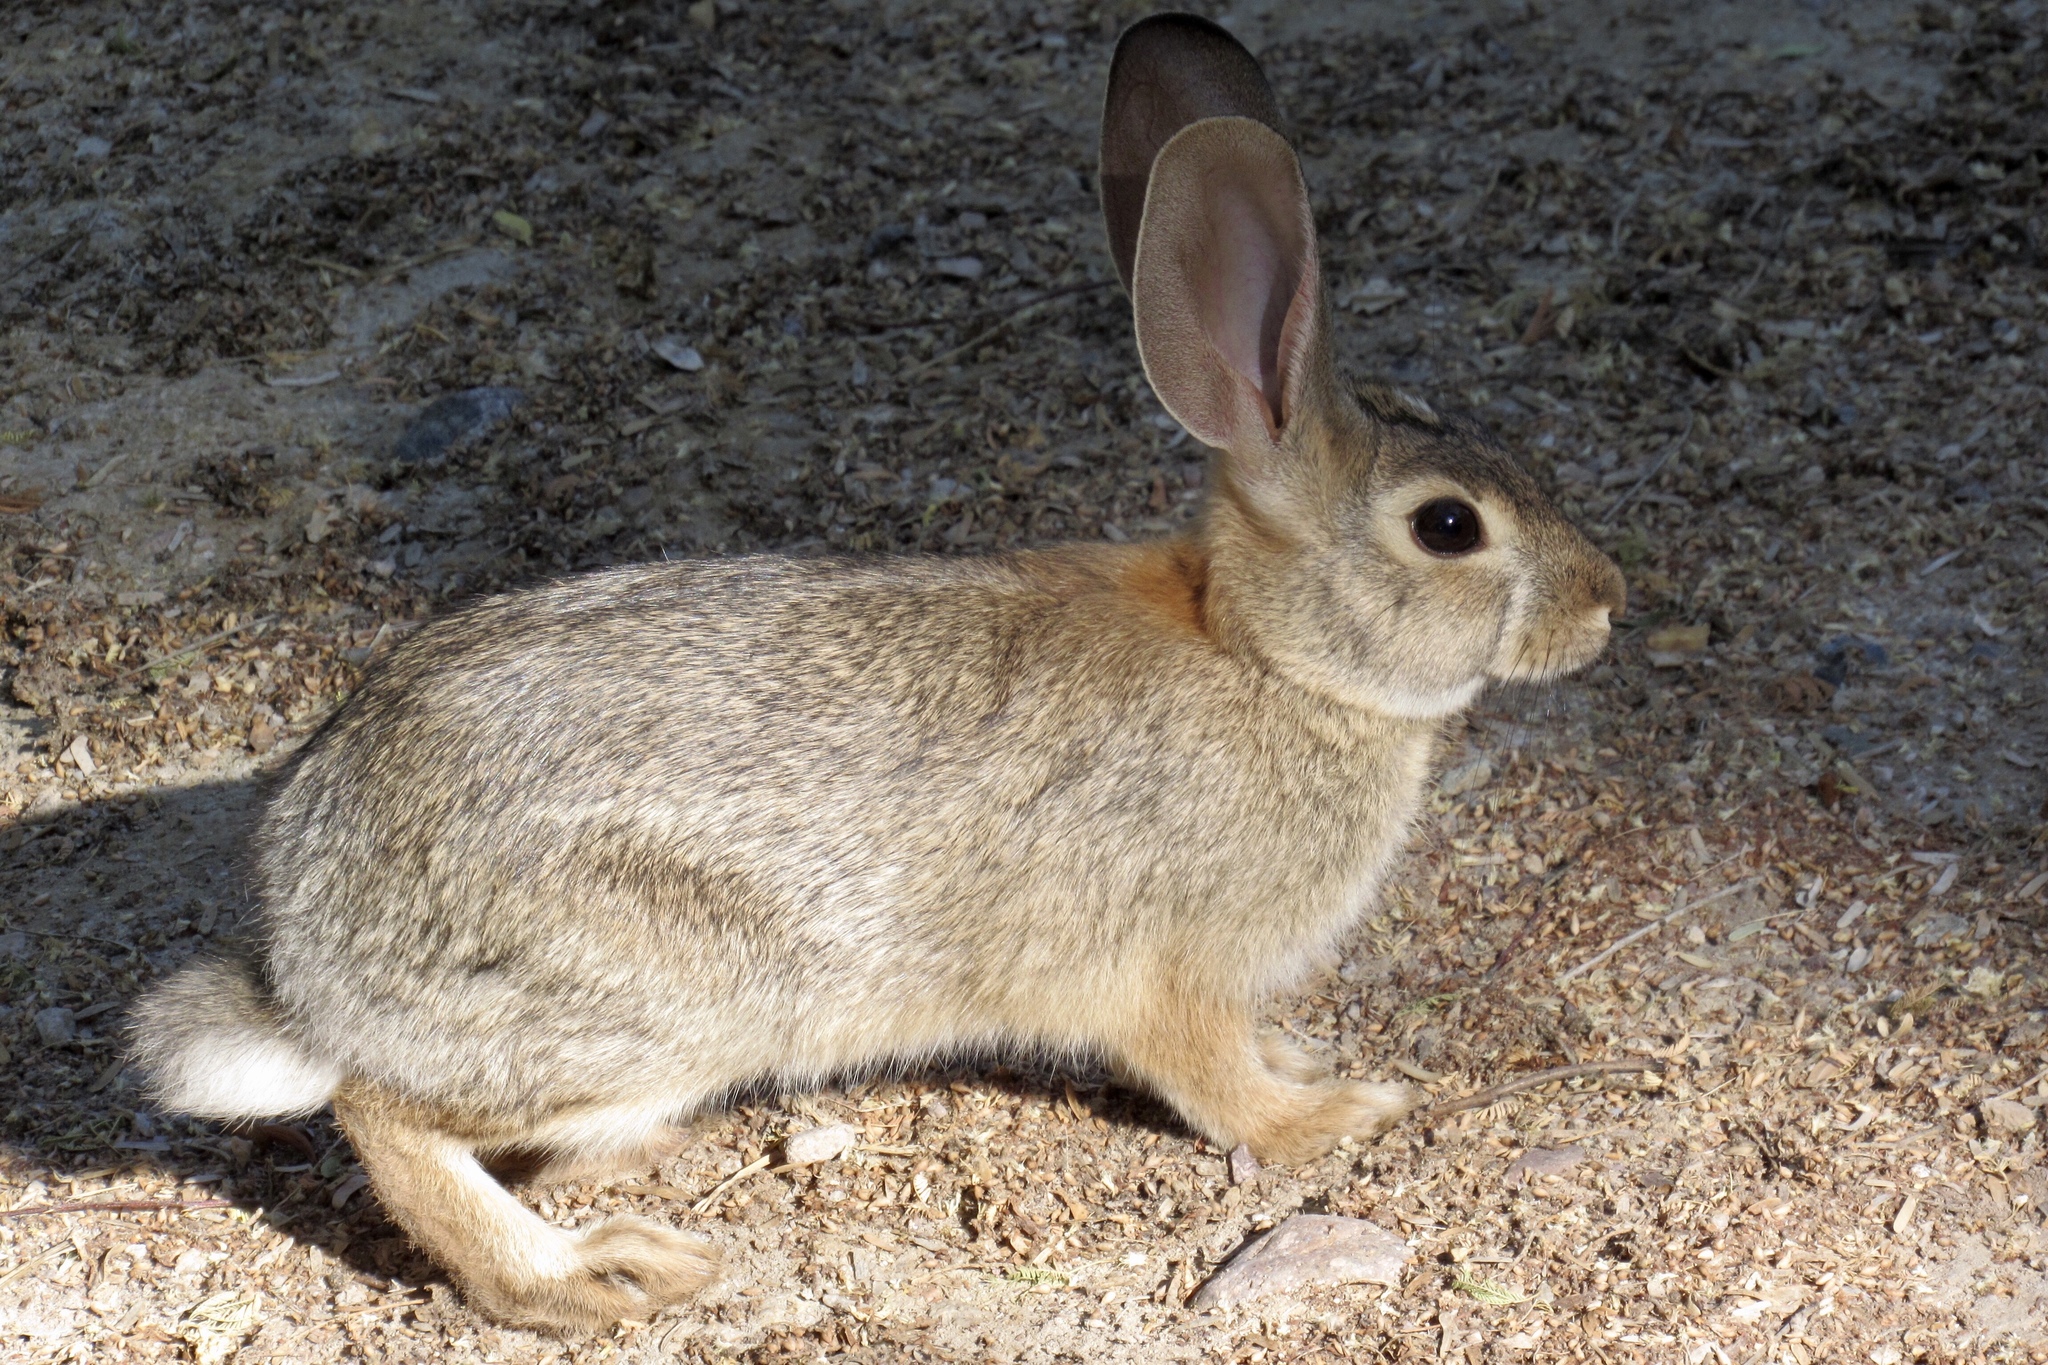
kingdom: Animalia
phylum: Chordata
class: Mammalia
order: Lagomorpha
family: Leporidae
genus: Sylvilagus
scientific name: Sylvilagus audubonii
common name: Desert cottontail
